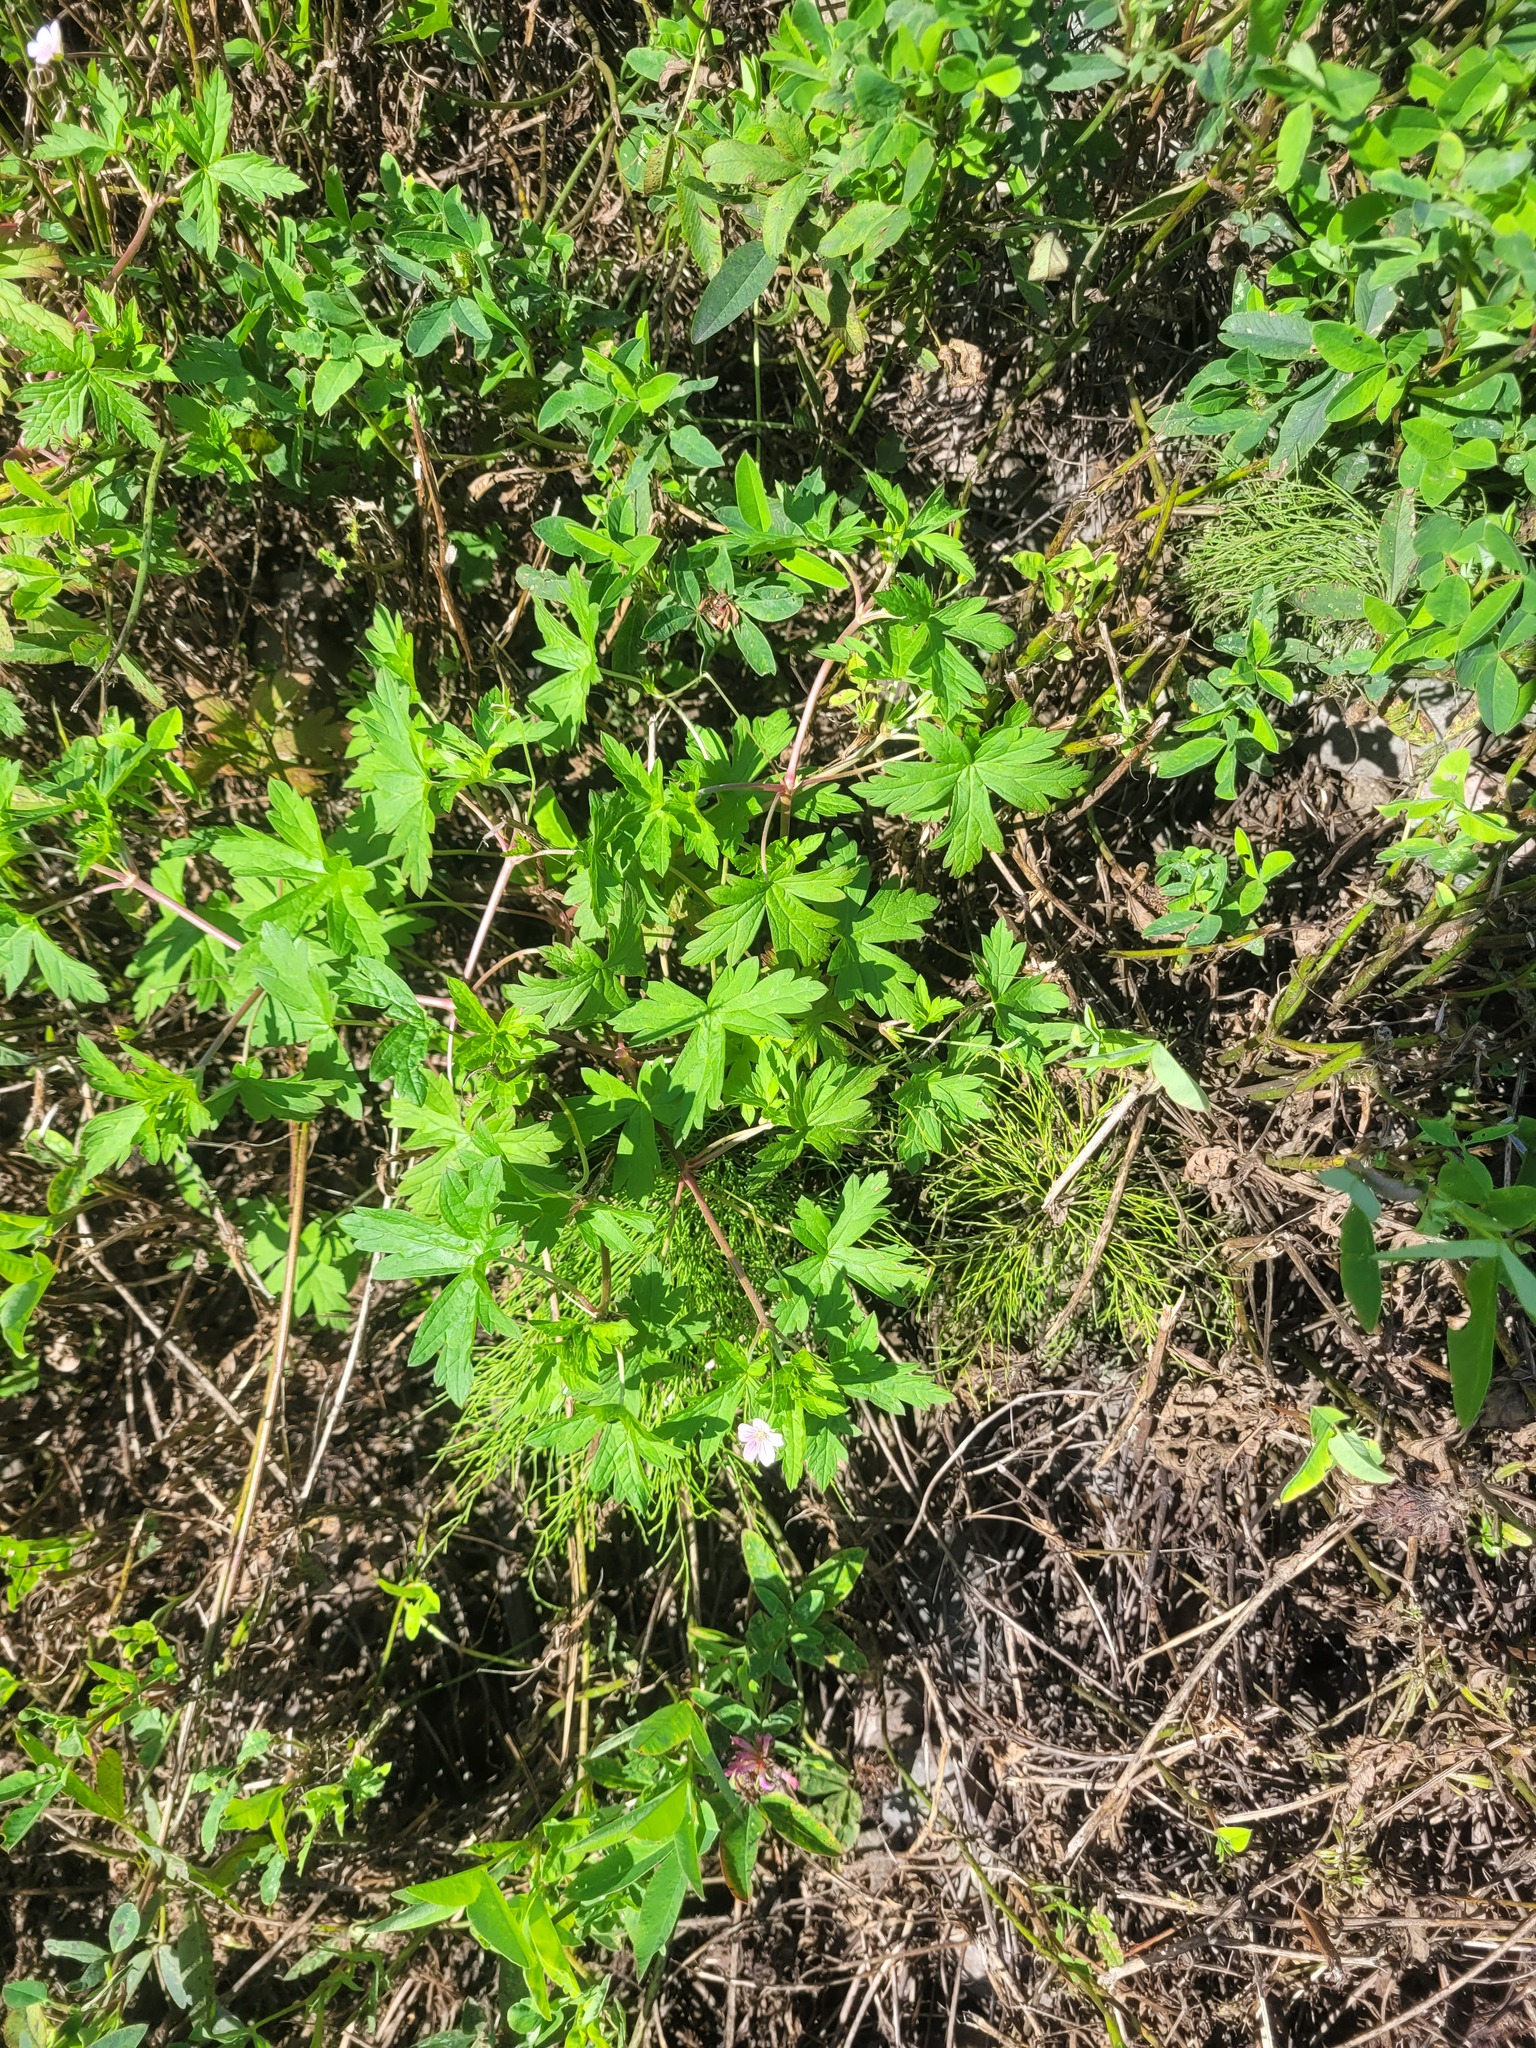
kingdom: Plantae
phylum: Tracheophyta
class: Magnoliopsida
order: Geraniales
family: Geraniaceae
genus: Geranium
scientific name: Geranium sibiricum
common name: Siberian crane's-bill
